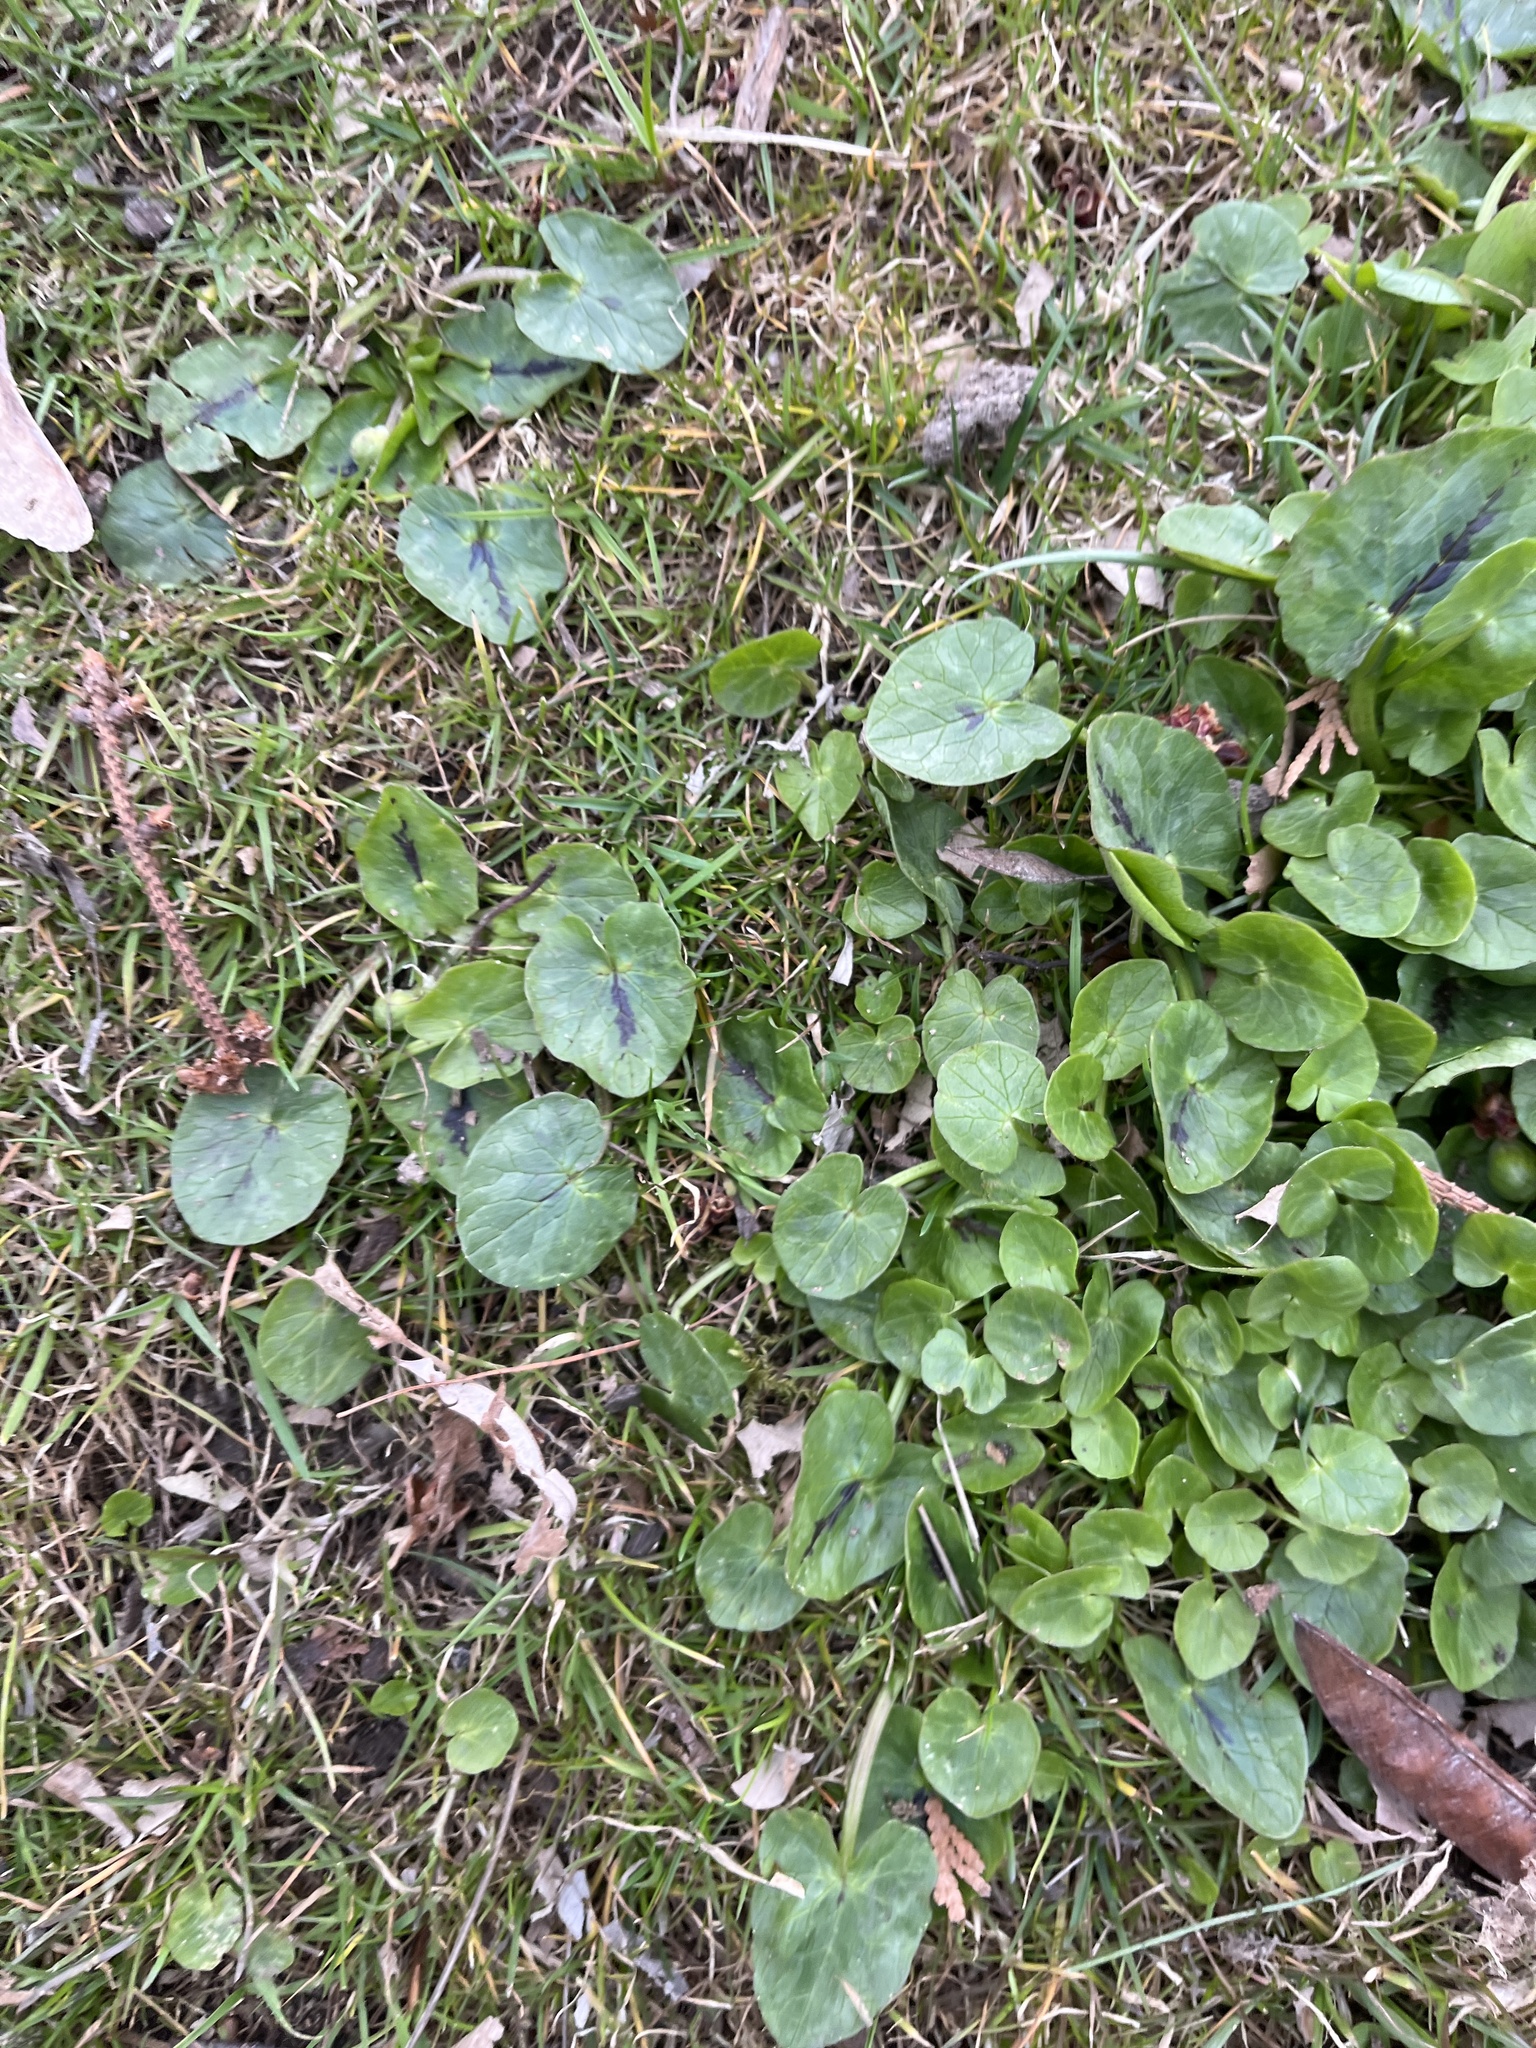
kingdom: Plantae
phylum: Tracheophyta
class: Magnoliopsida
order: Ranunculales
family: Ranunculaceae
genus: Ficaria
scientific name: Ficaria verna
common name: Lesser celandine
